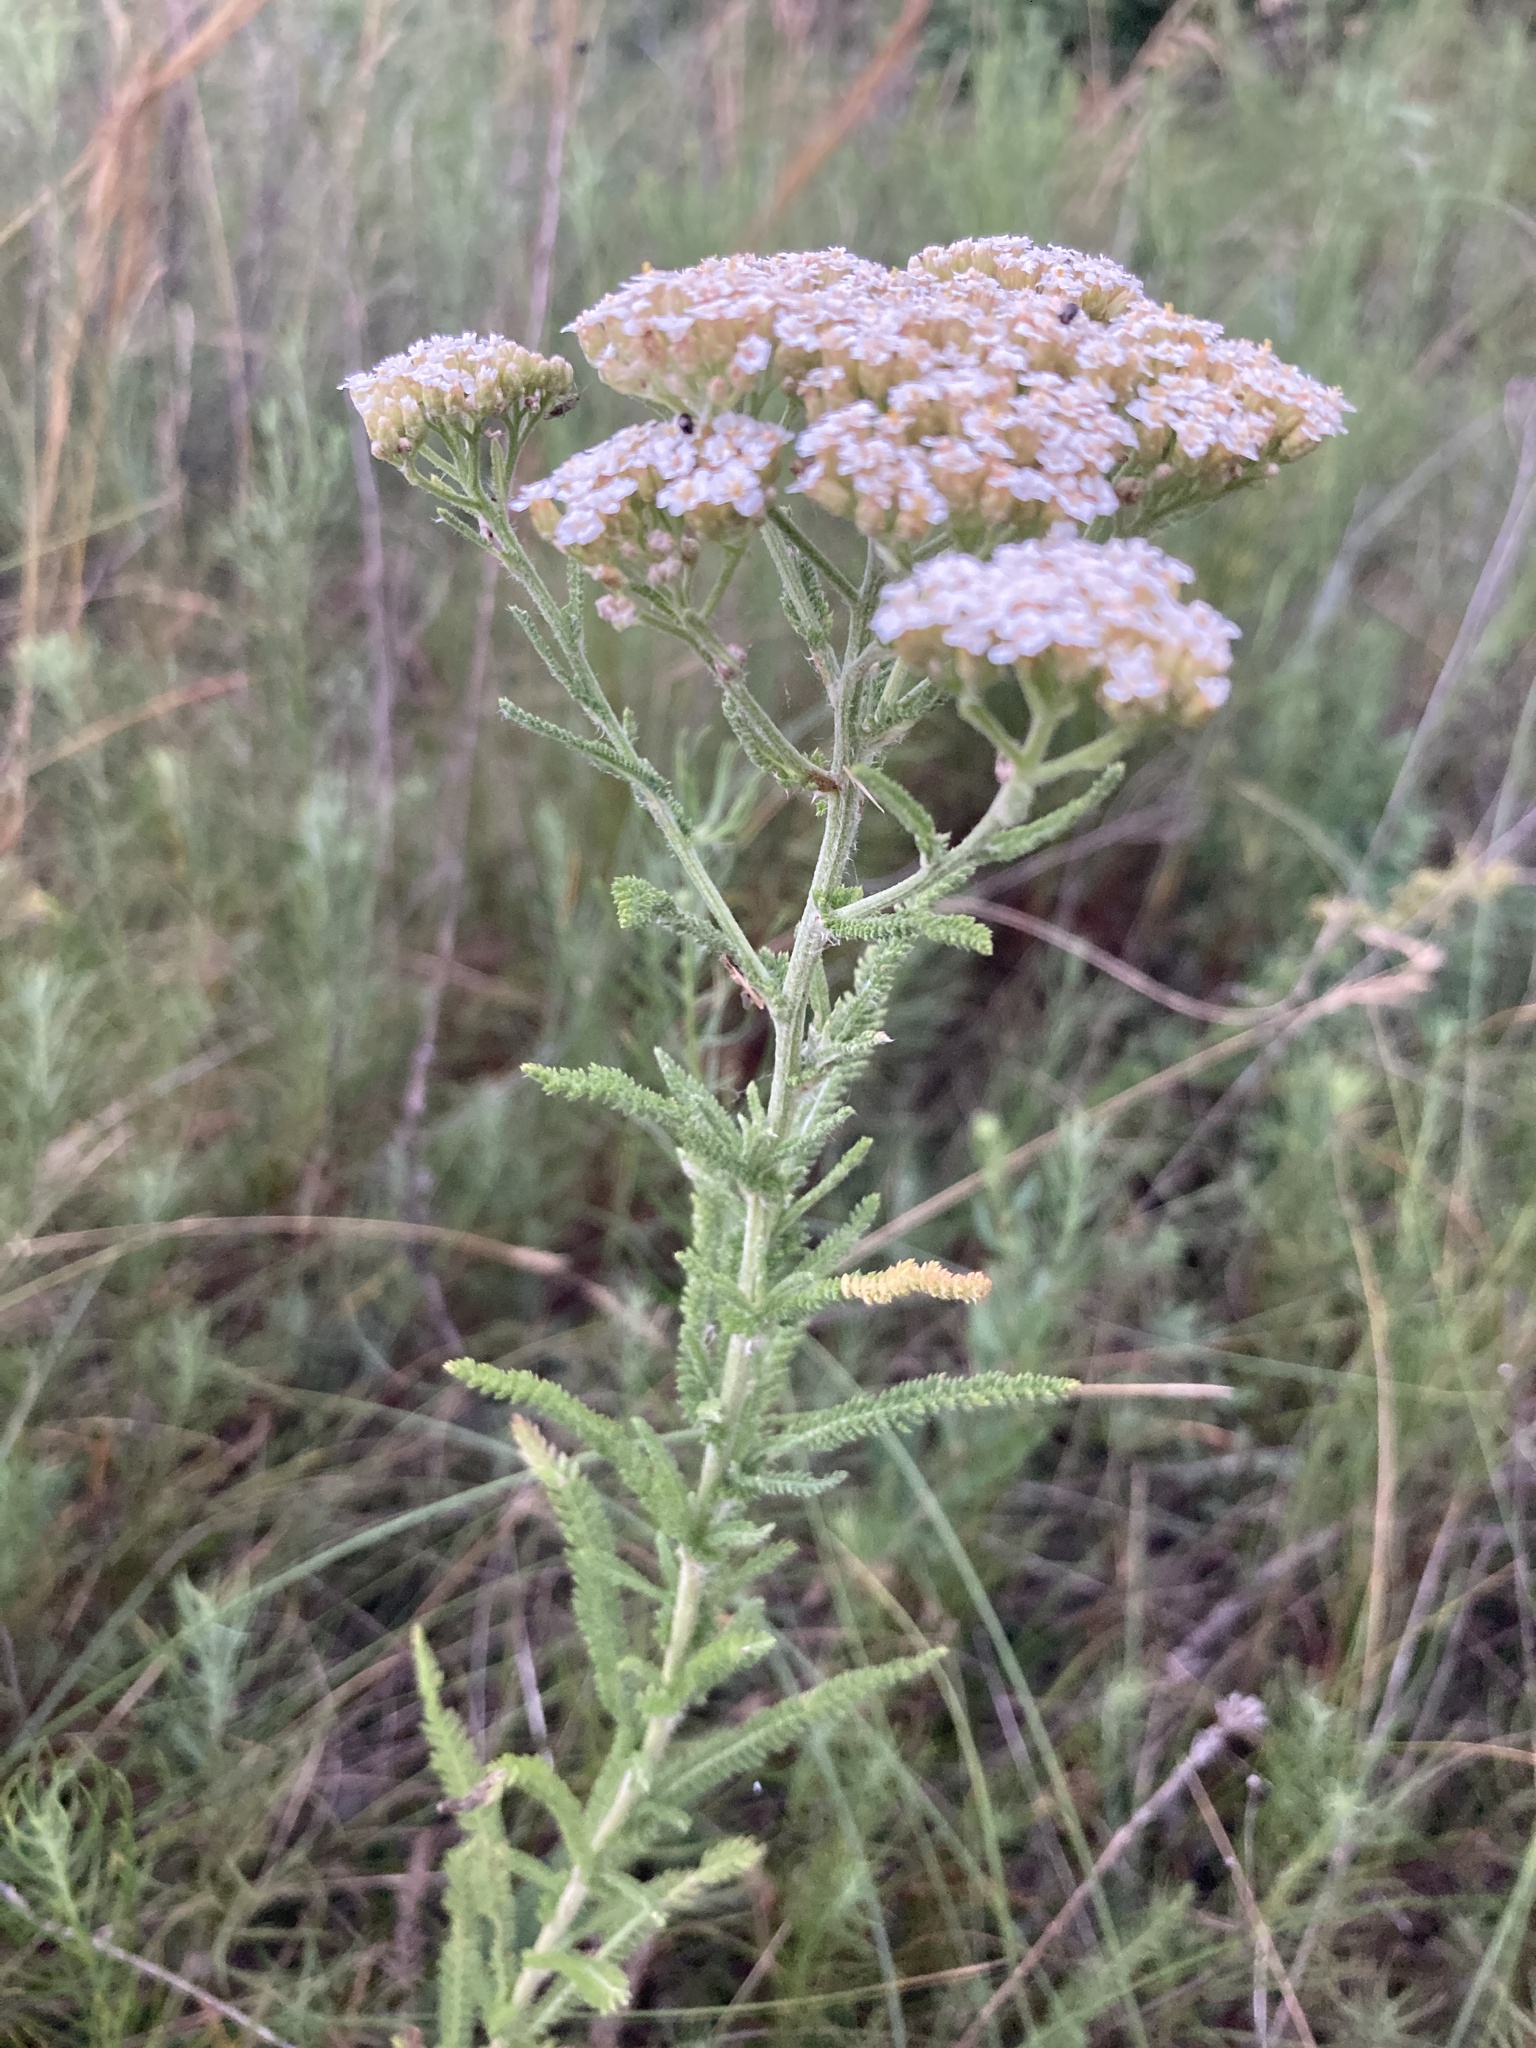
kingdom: Plantae
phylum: Tracheophyta
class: Magnoliopsida
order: Asterales
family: Asteraceae
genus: Achillea
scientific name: Achillea setacea
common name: Bristly yarrow
